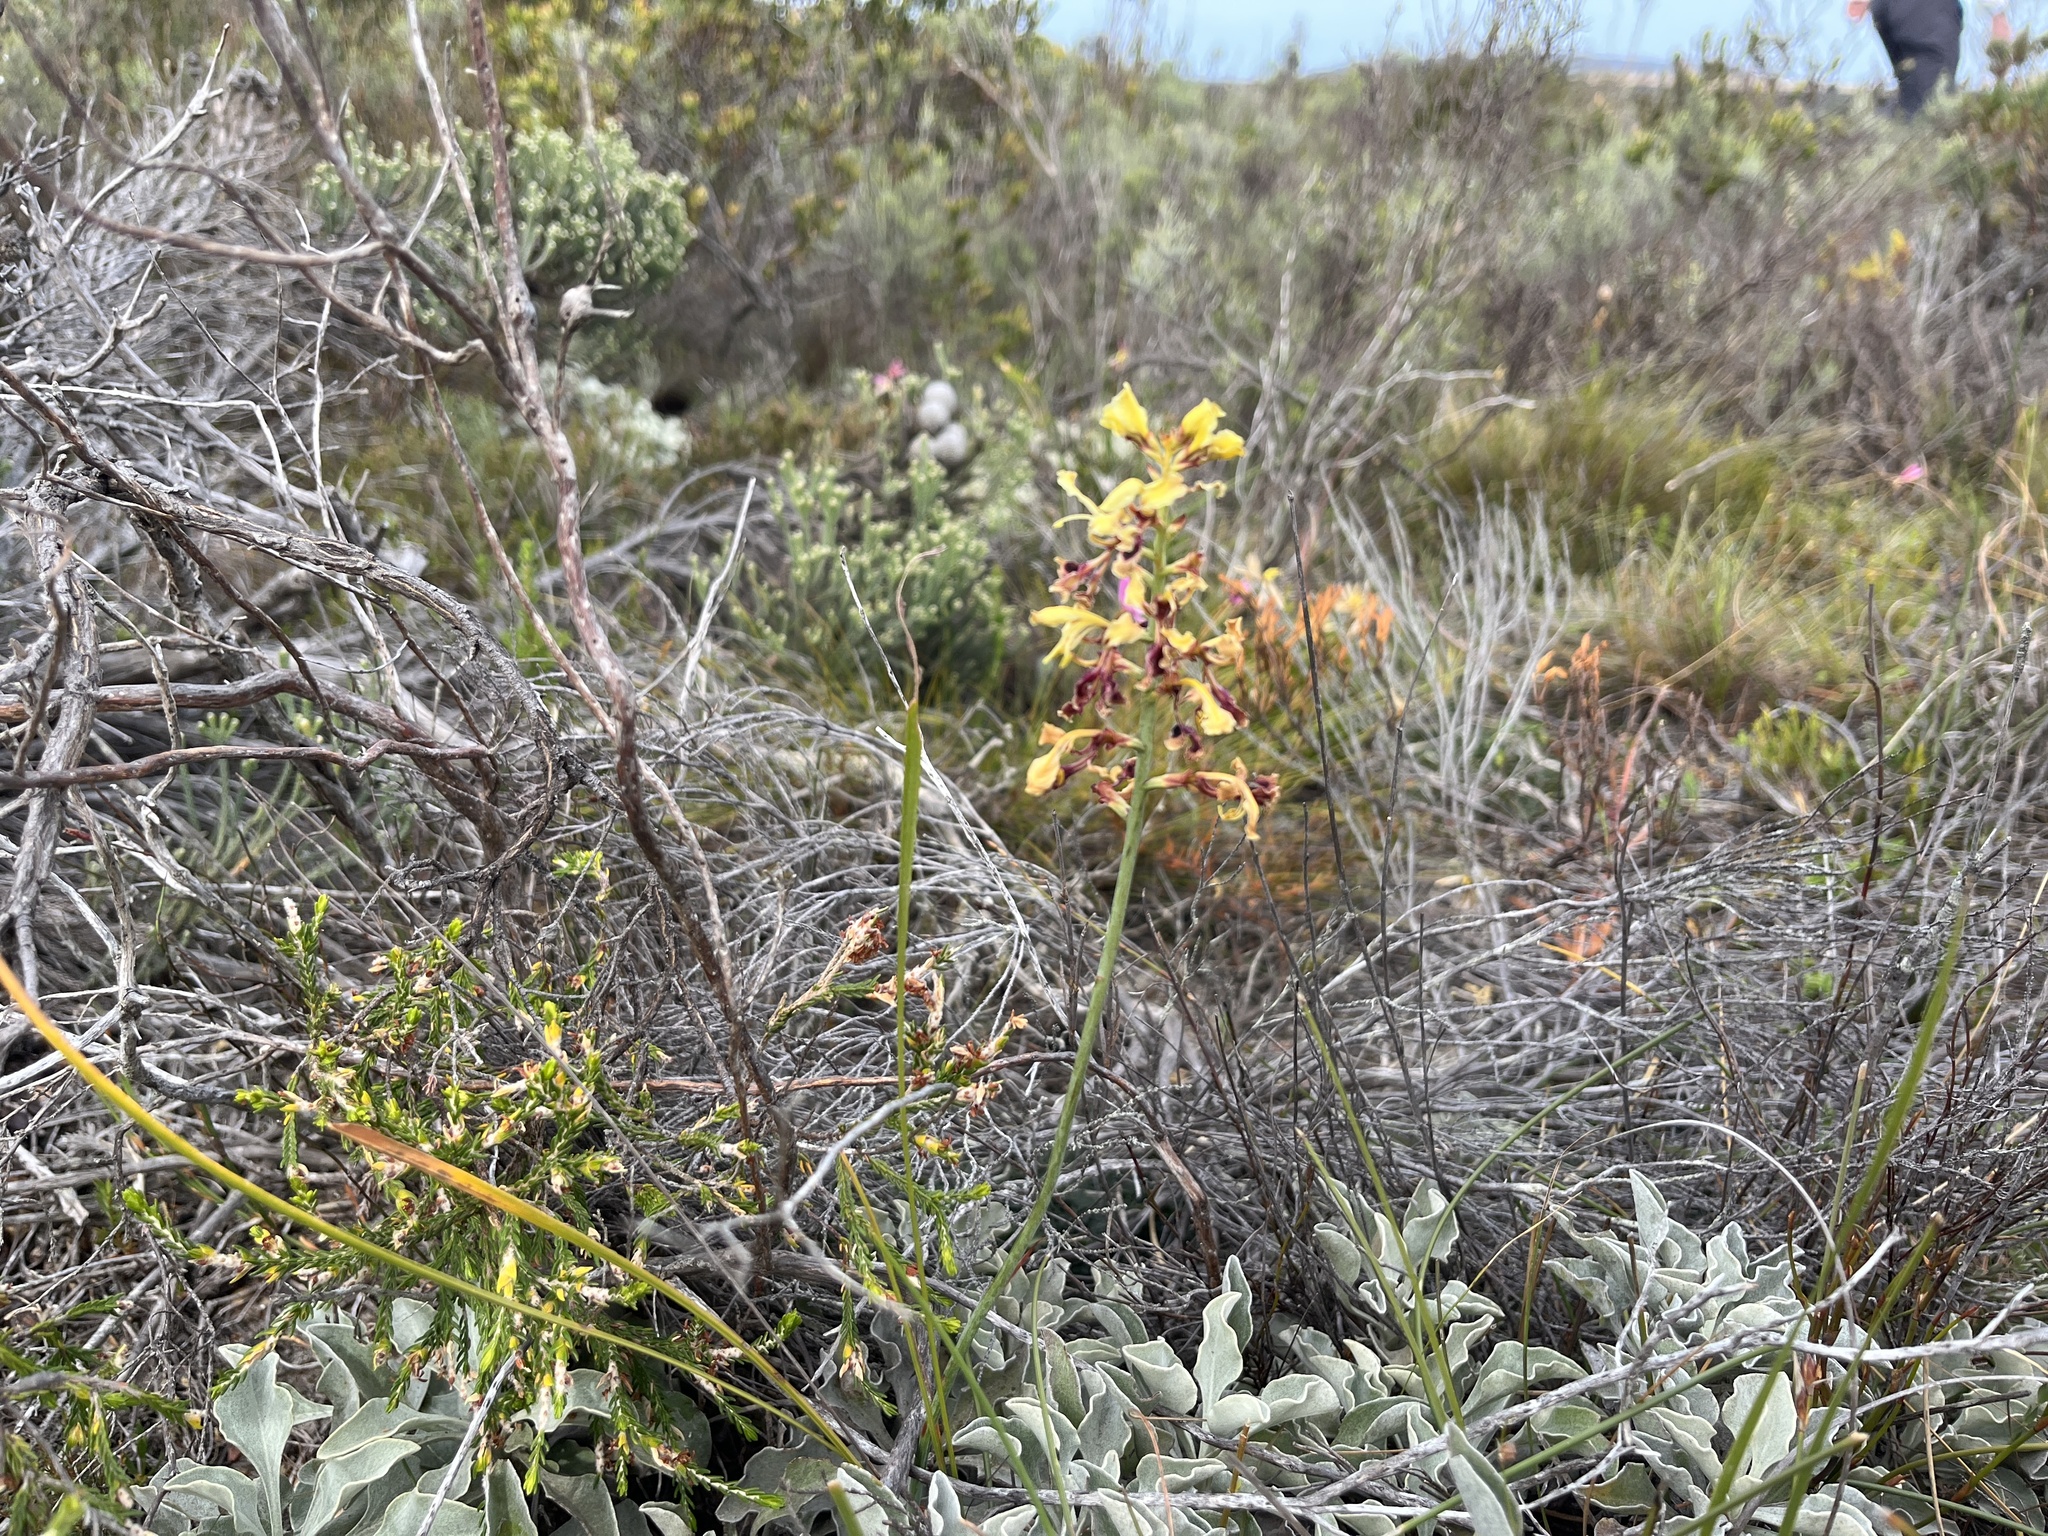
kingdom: Plantae
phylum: Tracheophyta
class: Liliopsida
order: Asparagales
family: Iridaceae
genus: Tritoniopsis
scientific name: Tritoniopsis parviflora
